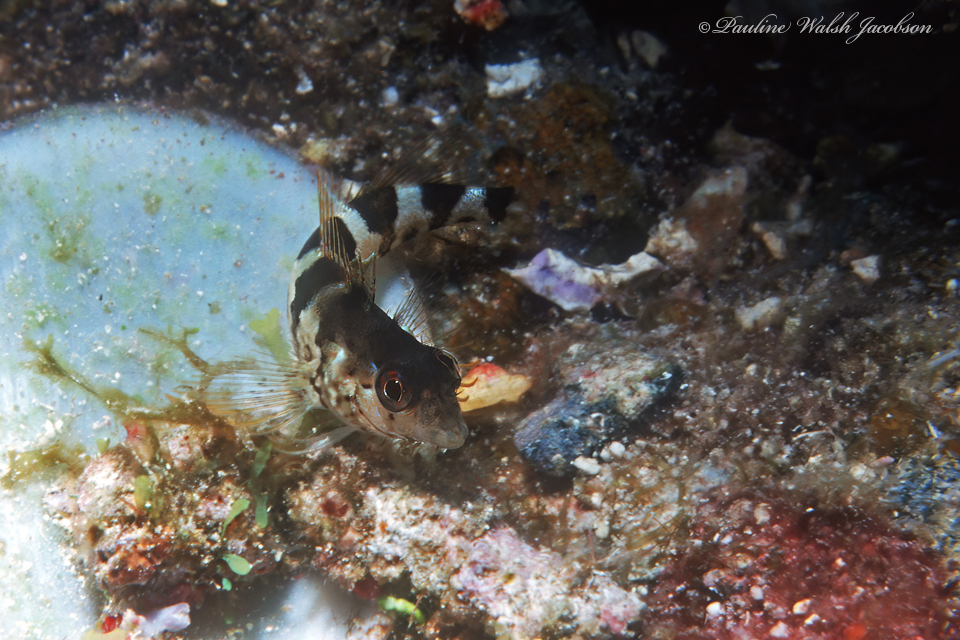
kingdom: Animalia
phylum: Chordata
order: Perciformes
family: Labrisomidae
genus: Malacoctenus
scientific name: Malacoctenus triangulatus
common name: Saddled blenny
